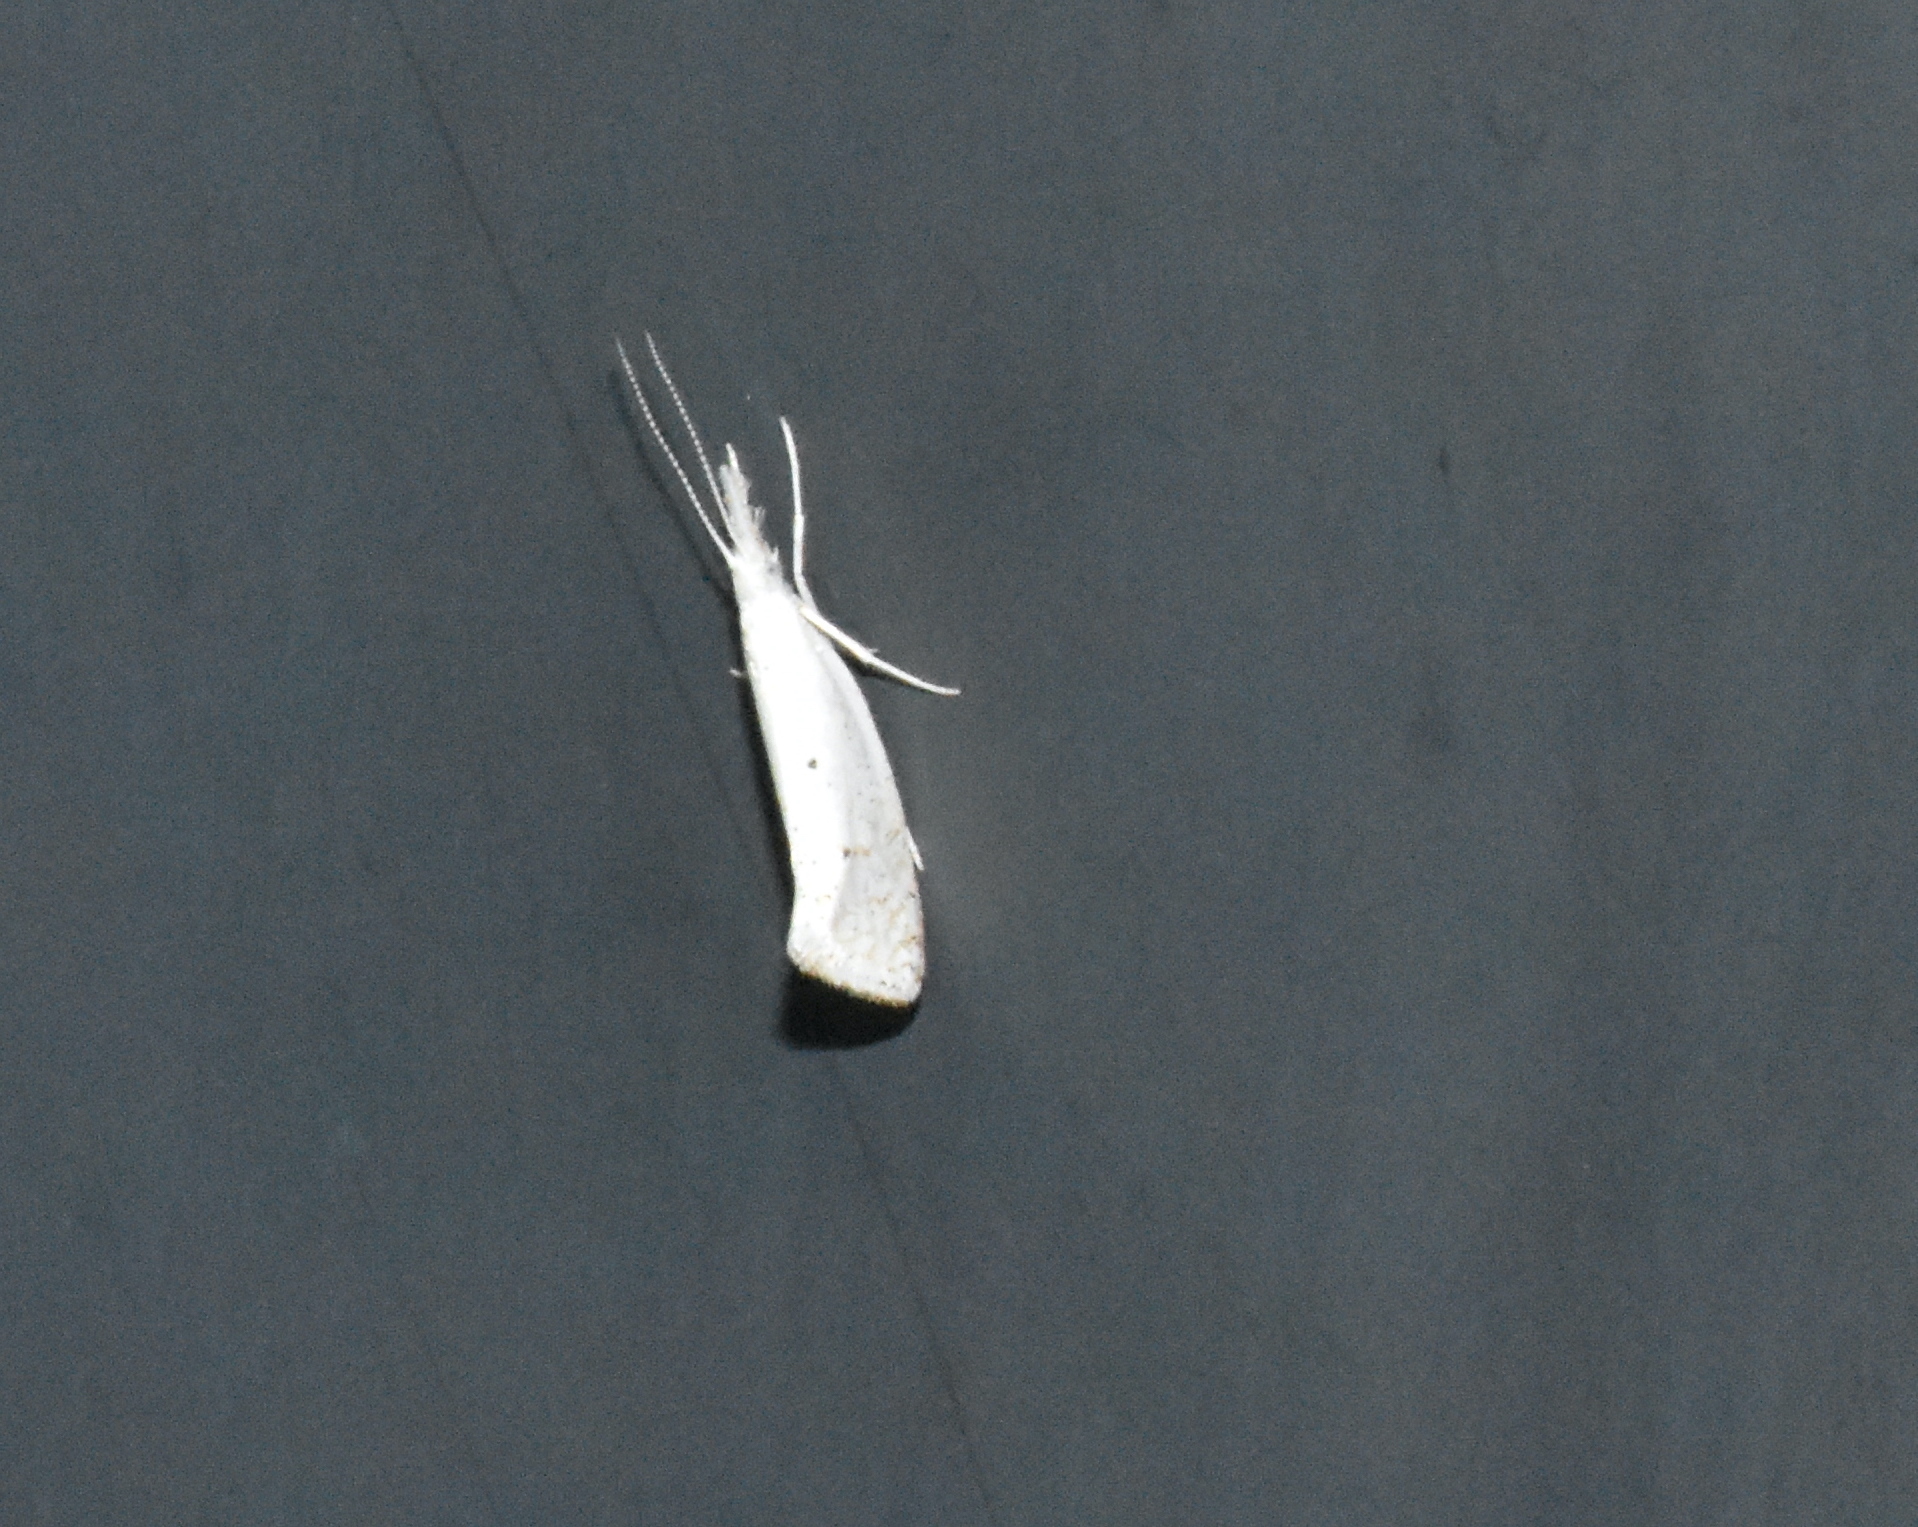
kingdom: Animalia
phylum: Arthropoda
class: Insecta
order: Lepidoptera
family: Ypsolophidae
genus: Euceratia
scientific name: Euceratia castella
